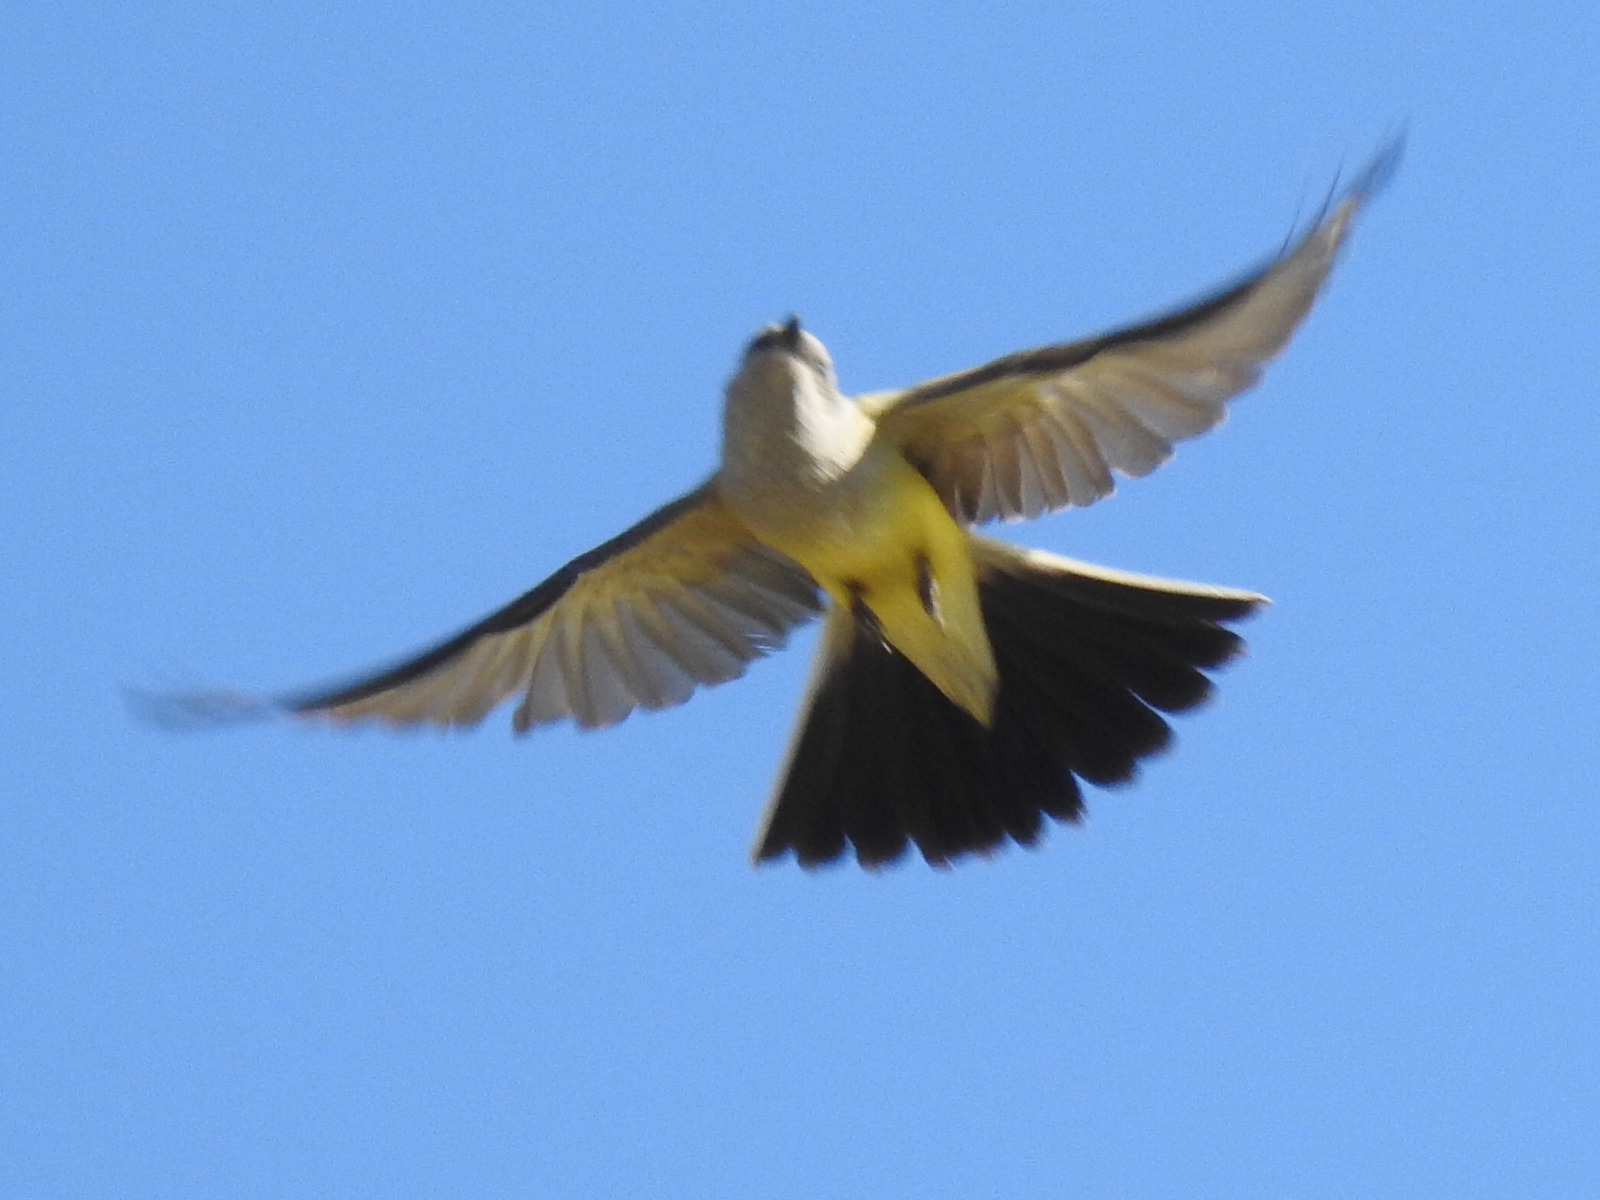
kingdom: Animalia
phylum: Chordata
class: Aves
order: Passeriformes
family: Tyrannidae
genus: Tyrannus
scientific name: Tyrannus verticalis
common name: Western kingbird
